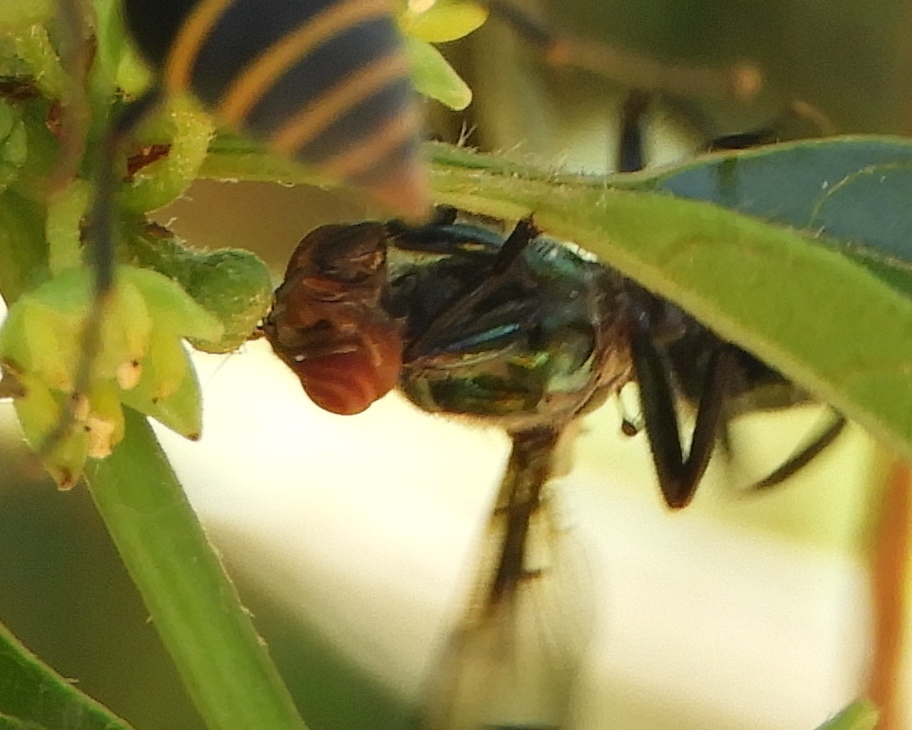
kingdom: Animalia
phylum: Arthropoda
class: Insecta
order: Diptera
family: Platystomatidae
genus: Senopterina
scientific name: Senopterina
